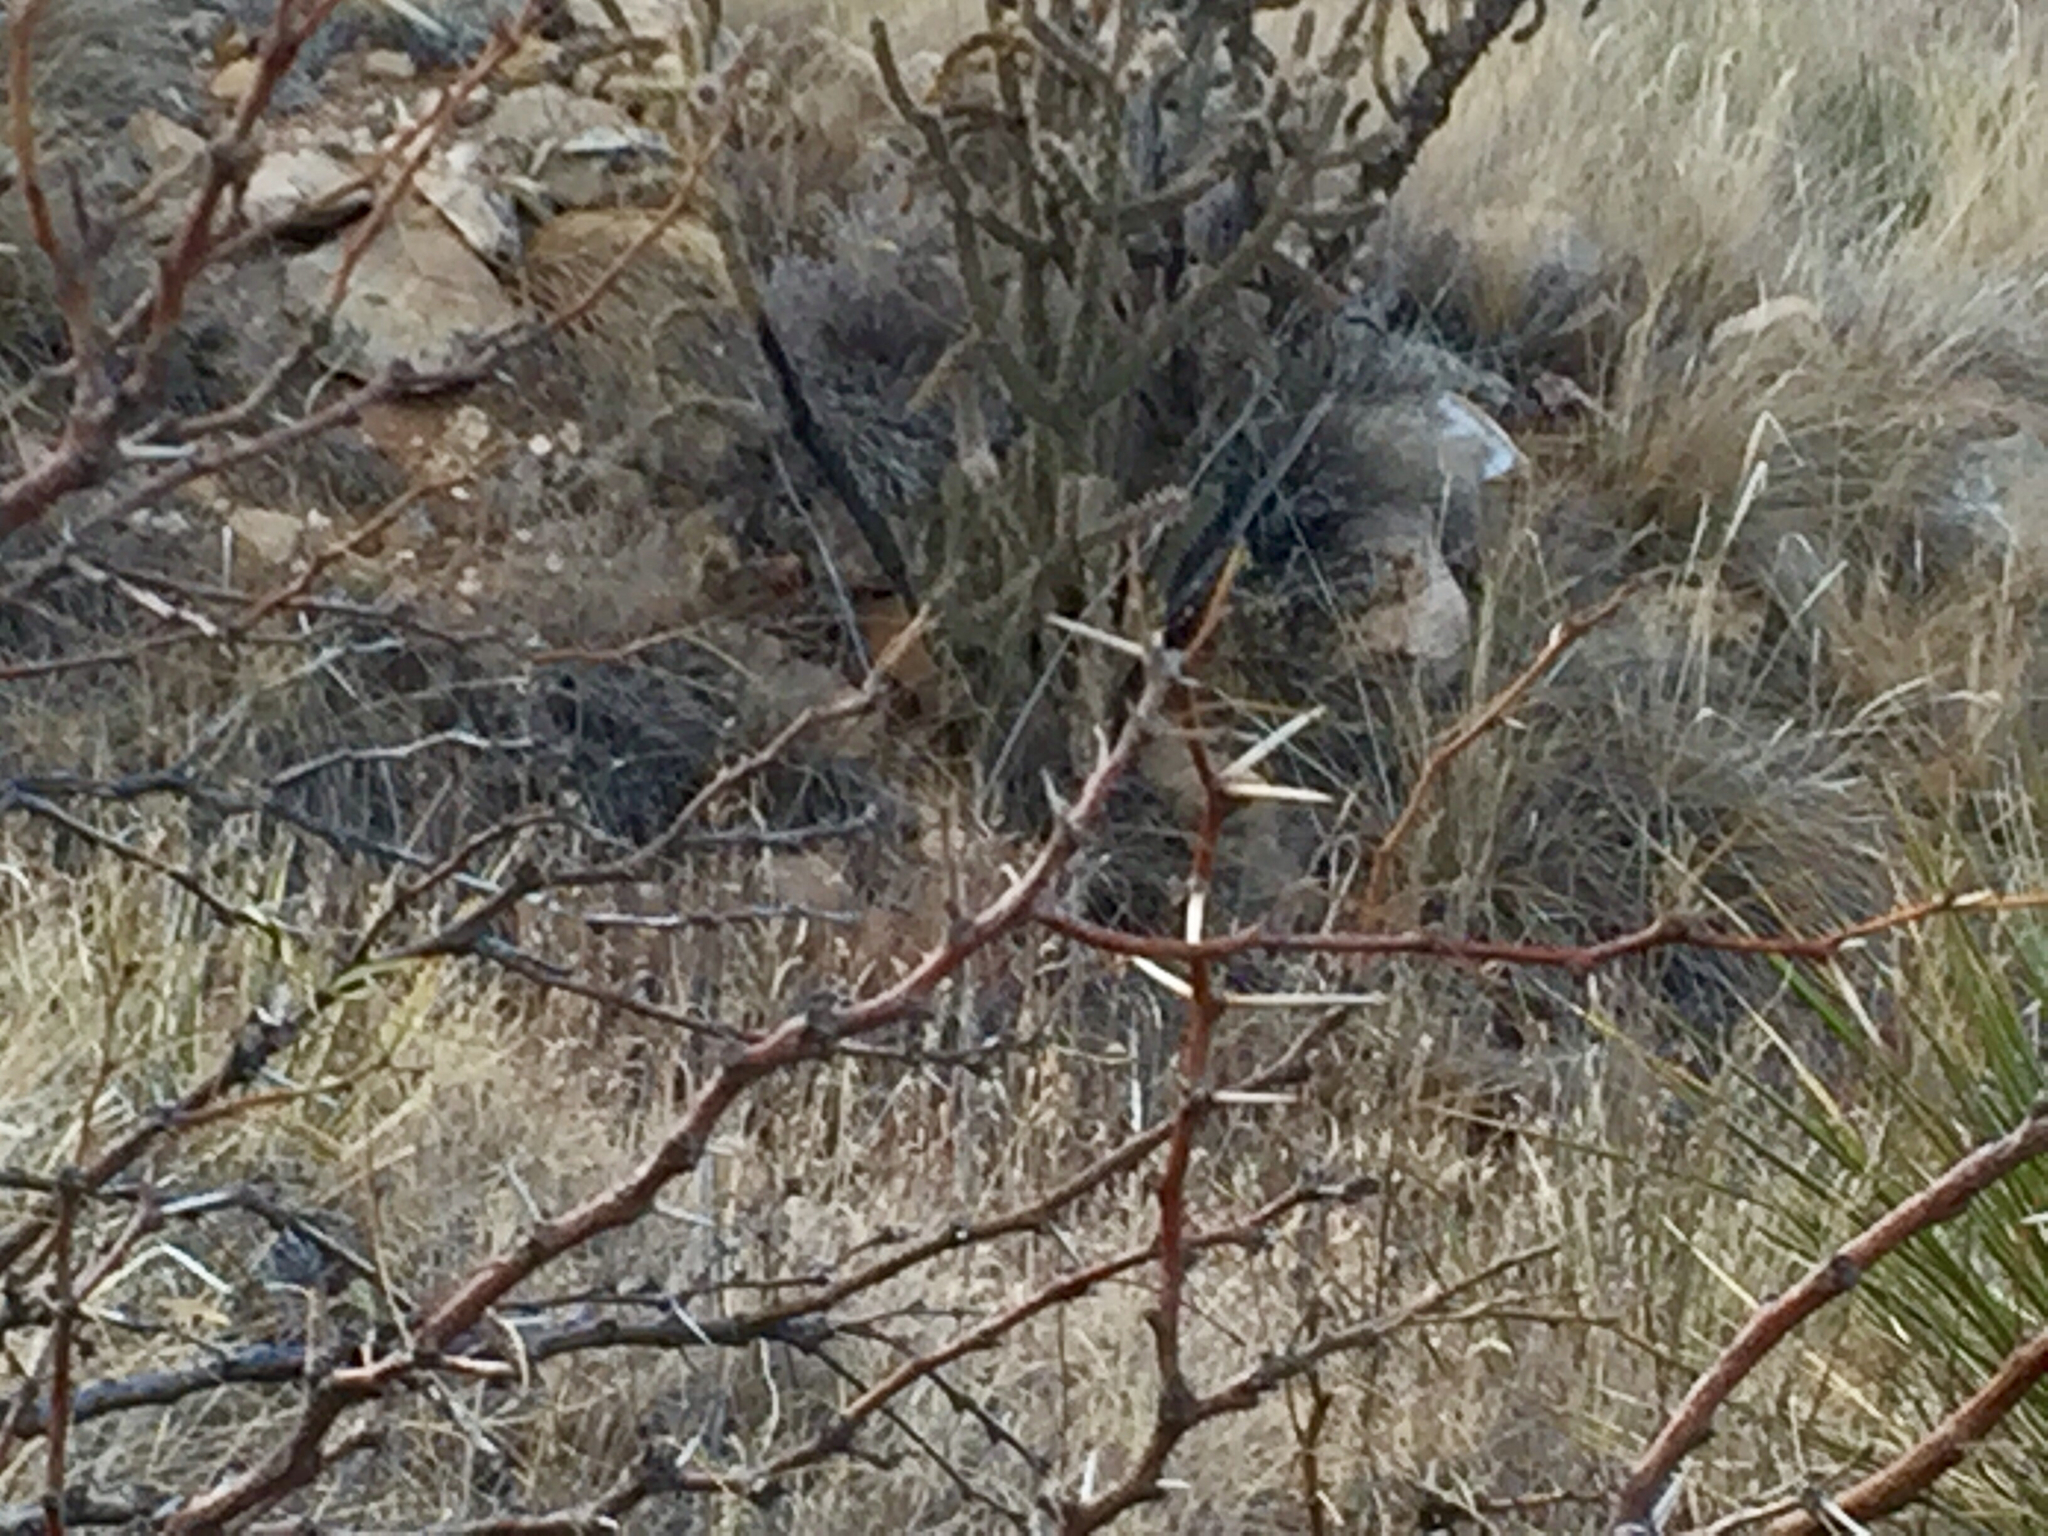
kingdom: Plantae
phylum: Tracheophyta
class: Magnoliopsida
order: Fabales
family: Fabaceae
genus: Prosopis
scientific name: Prosopis glandulosa
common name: Honey mesquite
